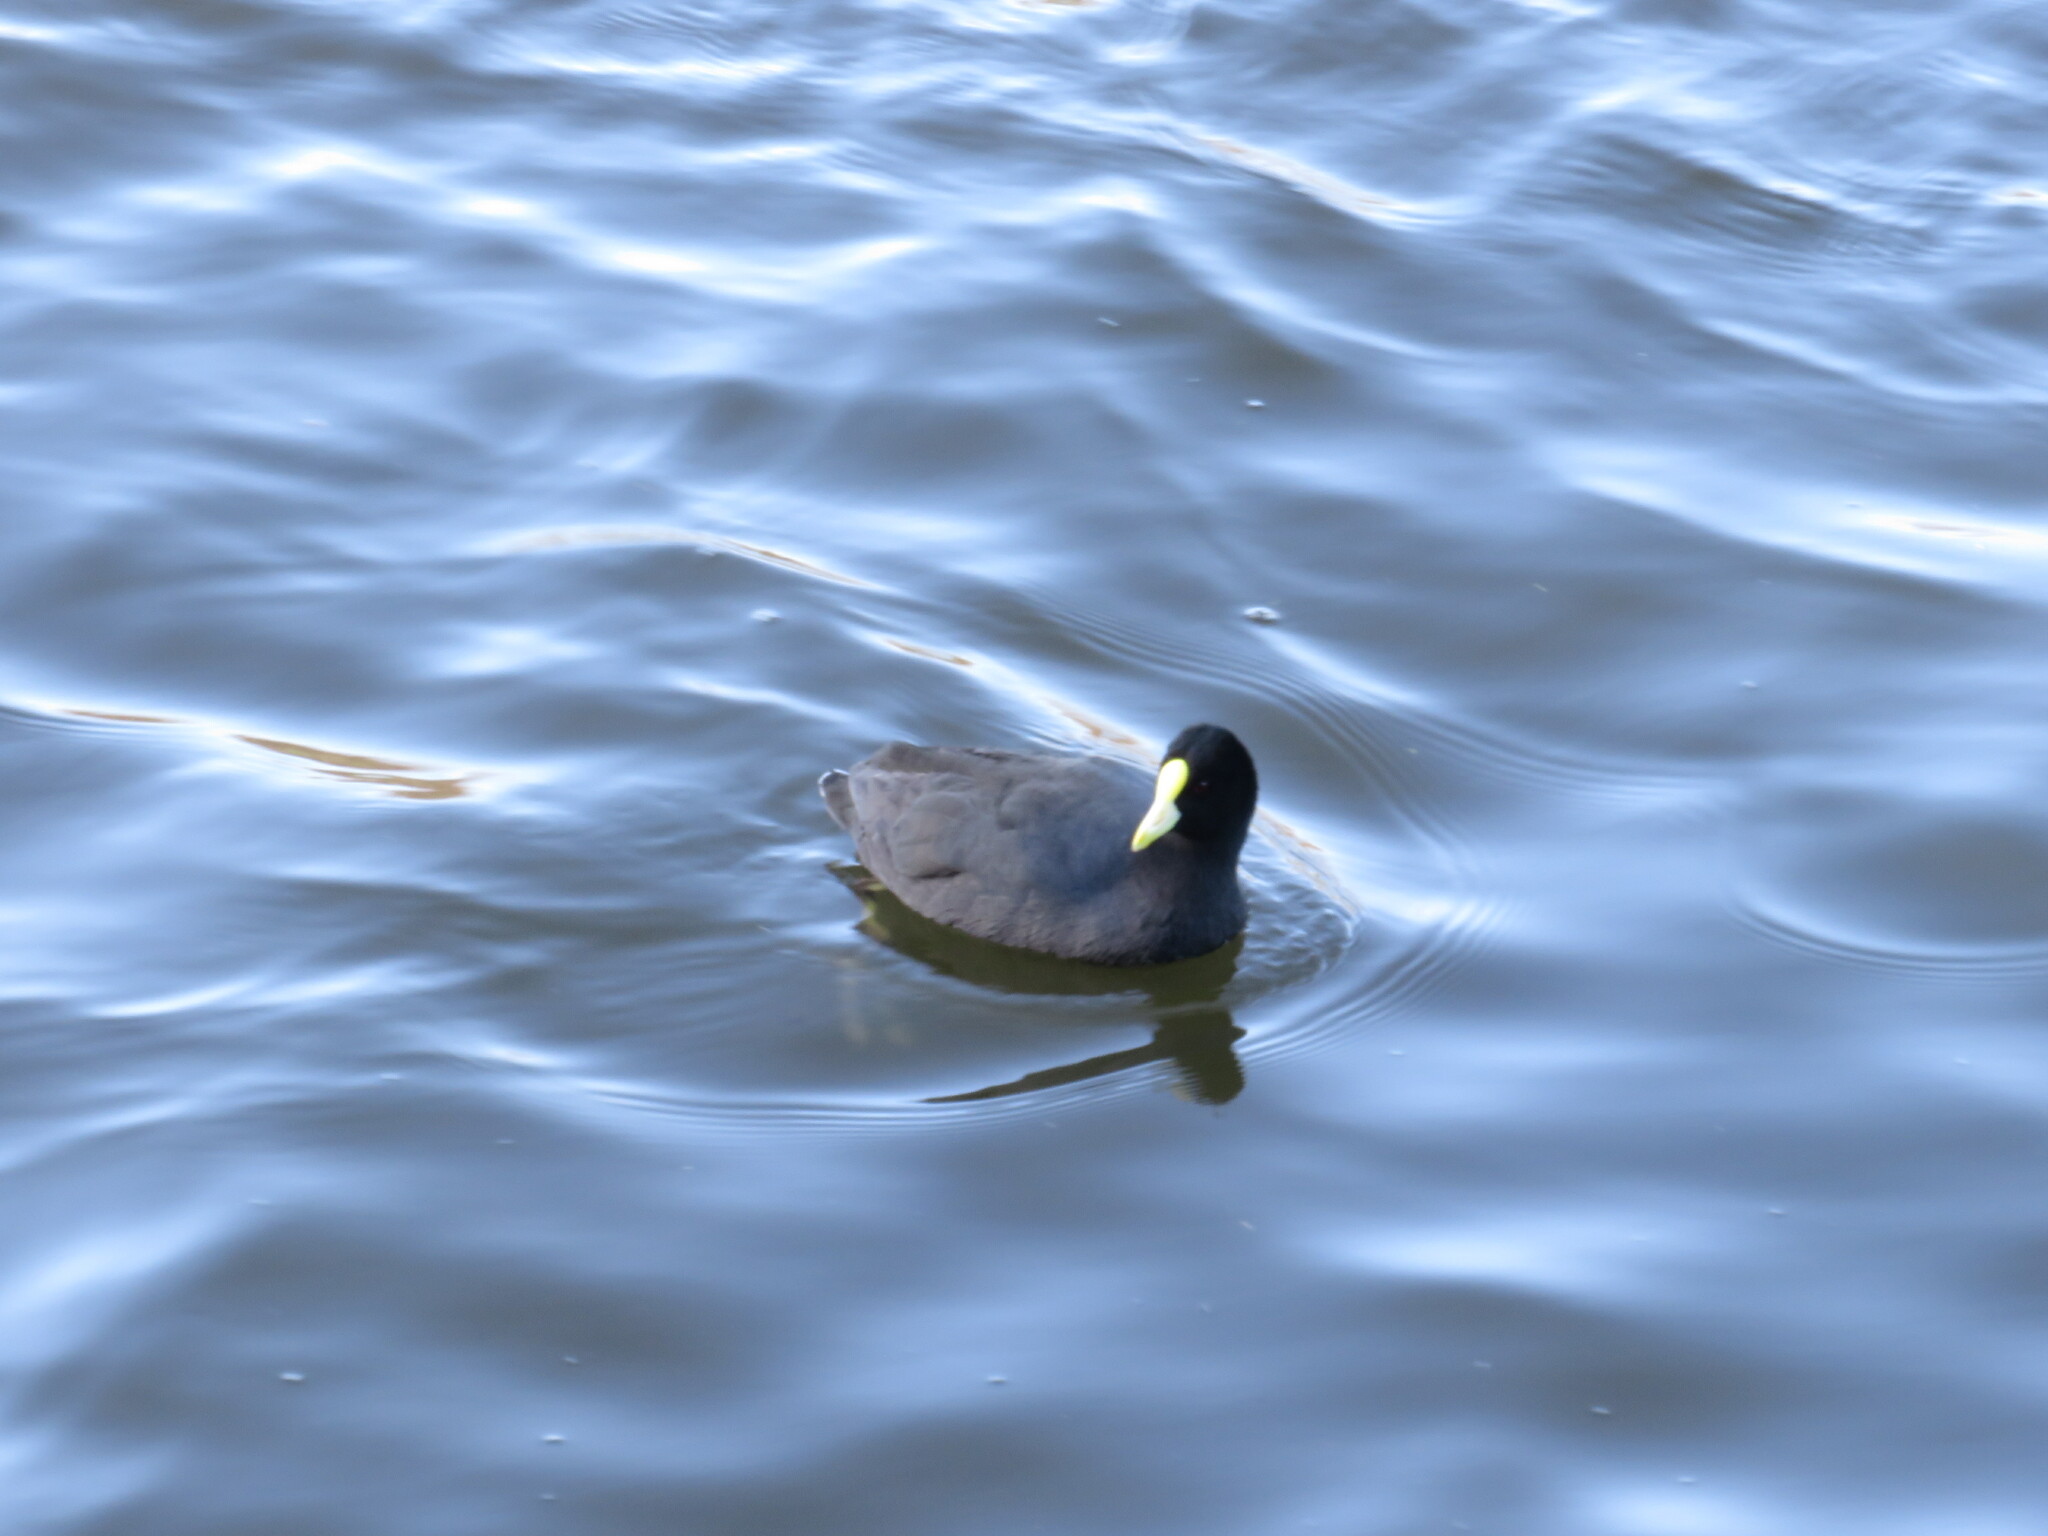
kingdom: Animalia
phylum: Chordata
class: Aves
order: Gruiformes
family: Rallidae
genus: Fulica
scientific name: Fulica leucoptera
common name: White-winged coot
